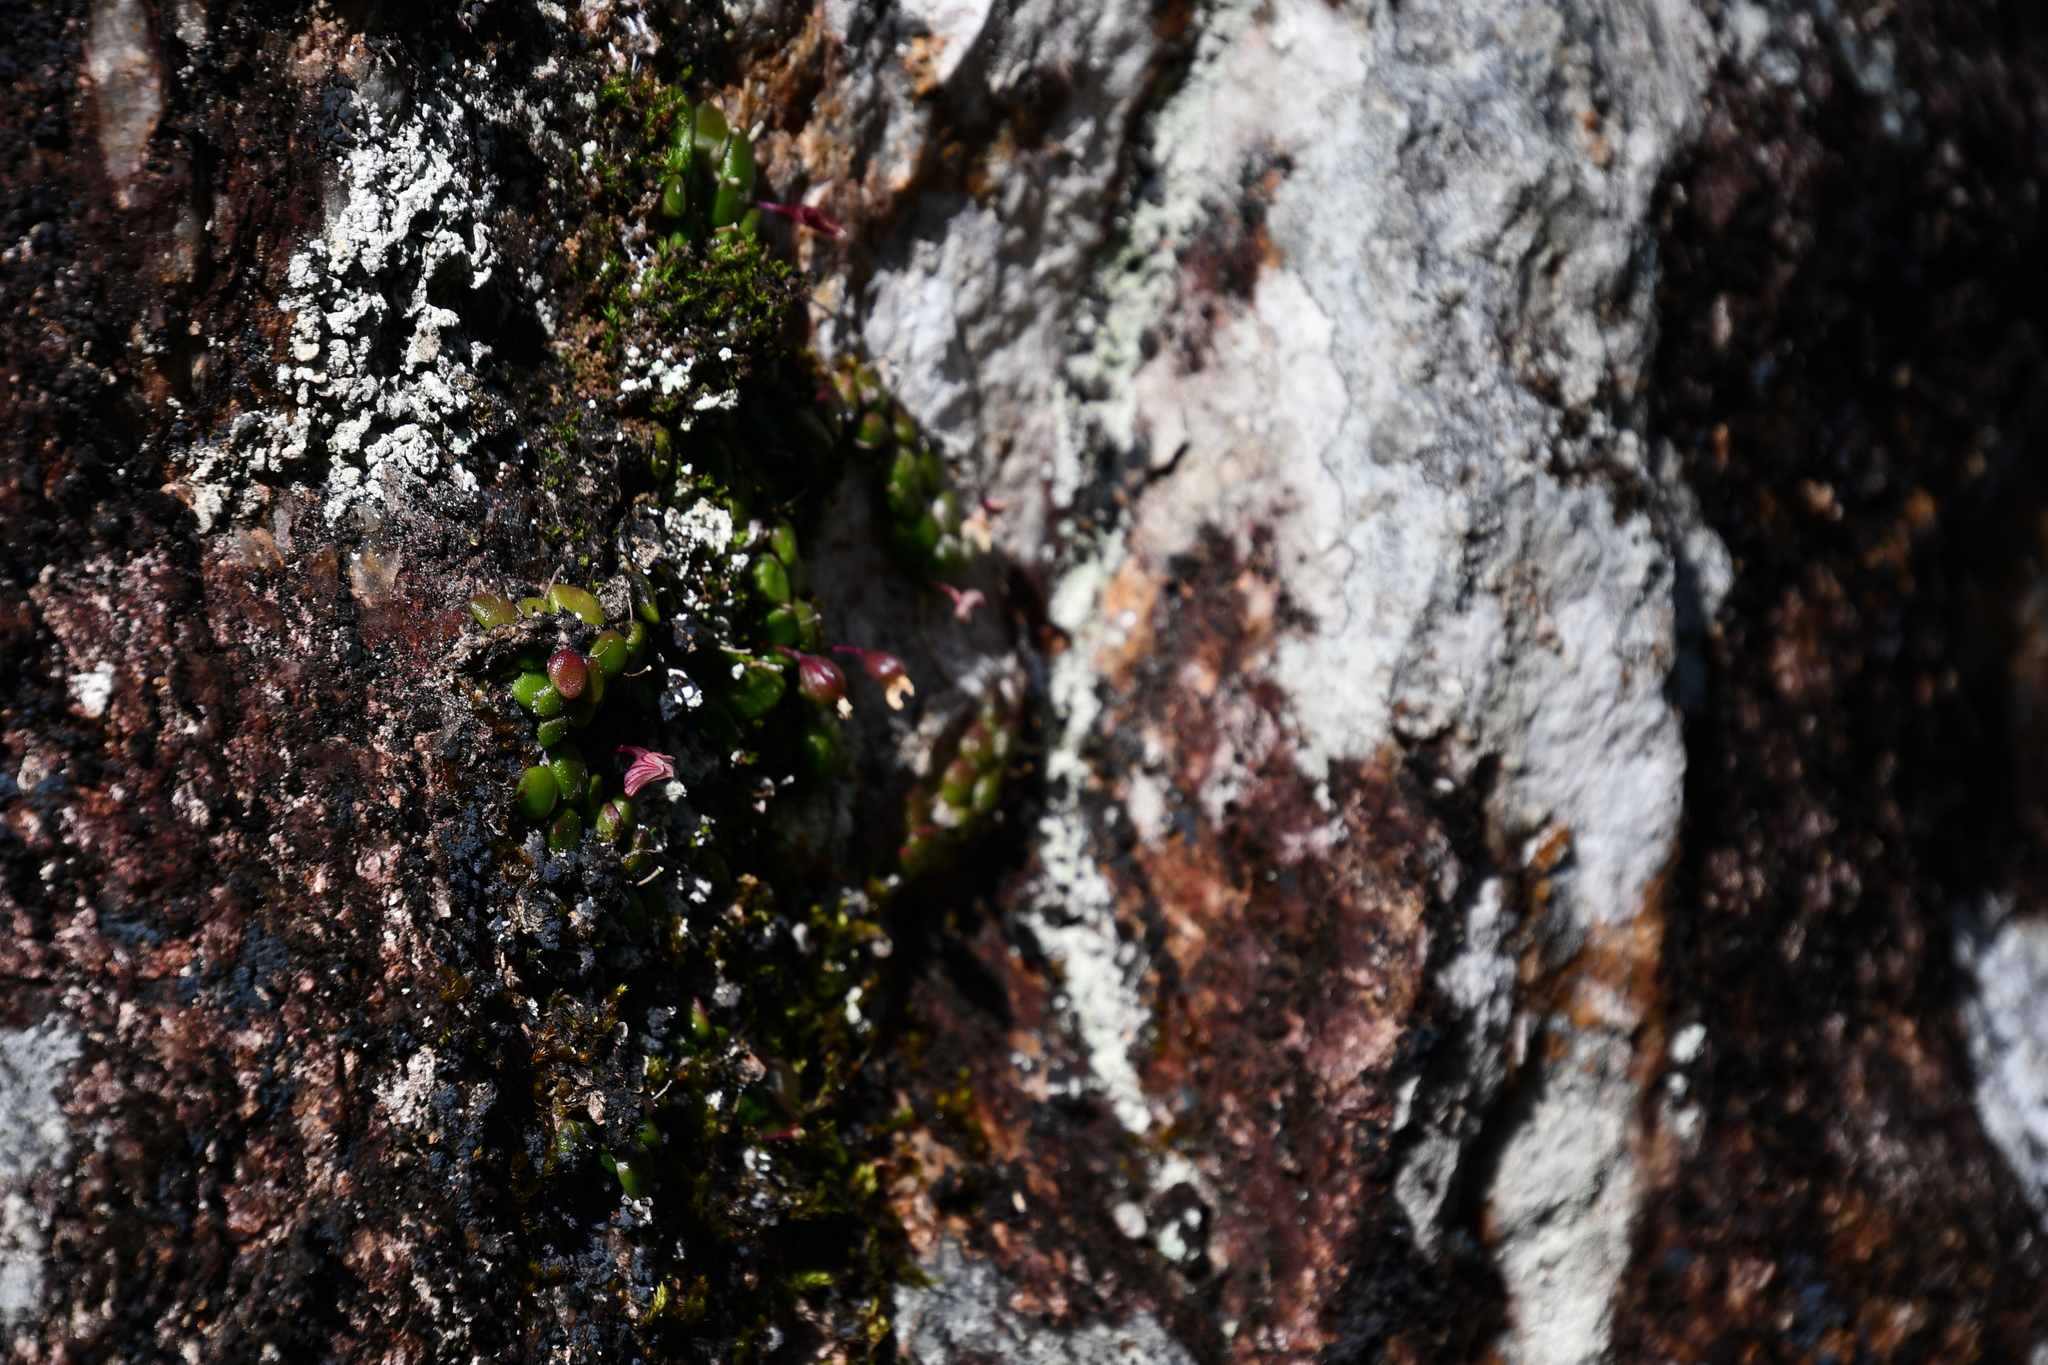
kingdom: Plantae
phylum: Tracheophyta
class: Liliopsida
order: Asparagales
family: Orchidaceae
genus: Dendrobium
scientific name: Dendrobium lichenastrum
